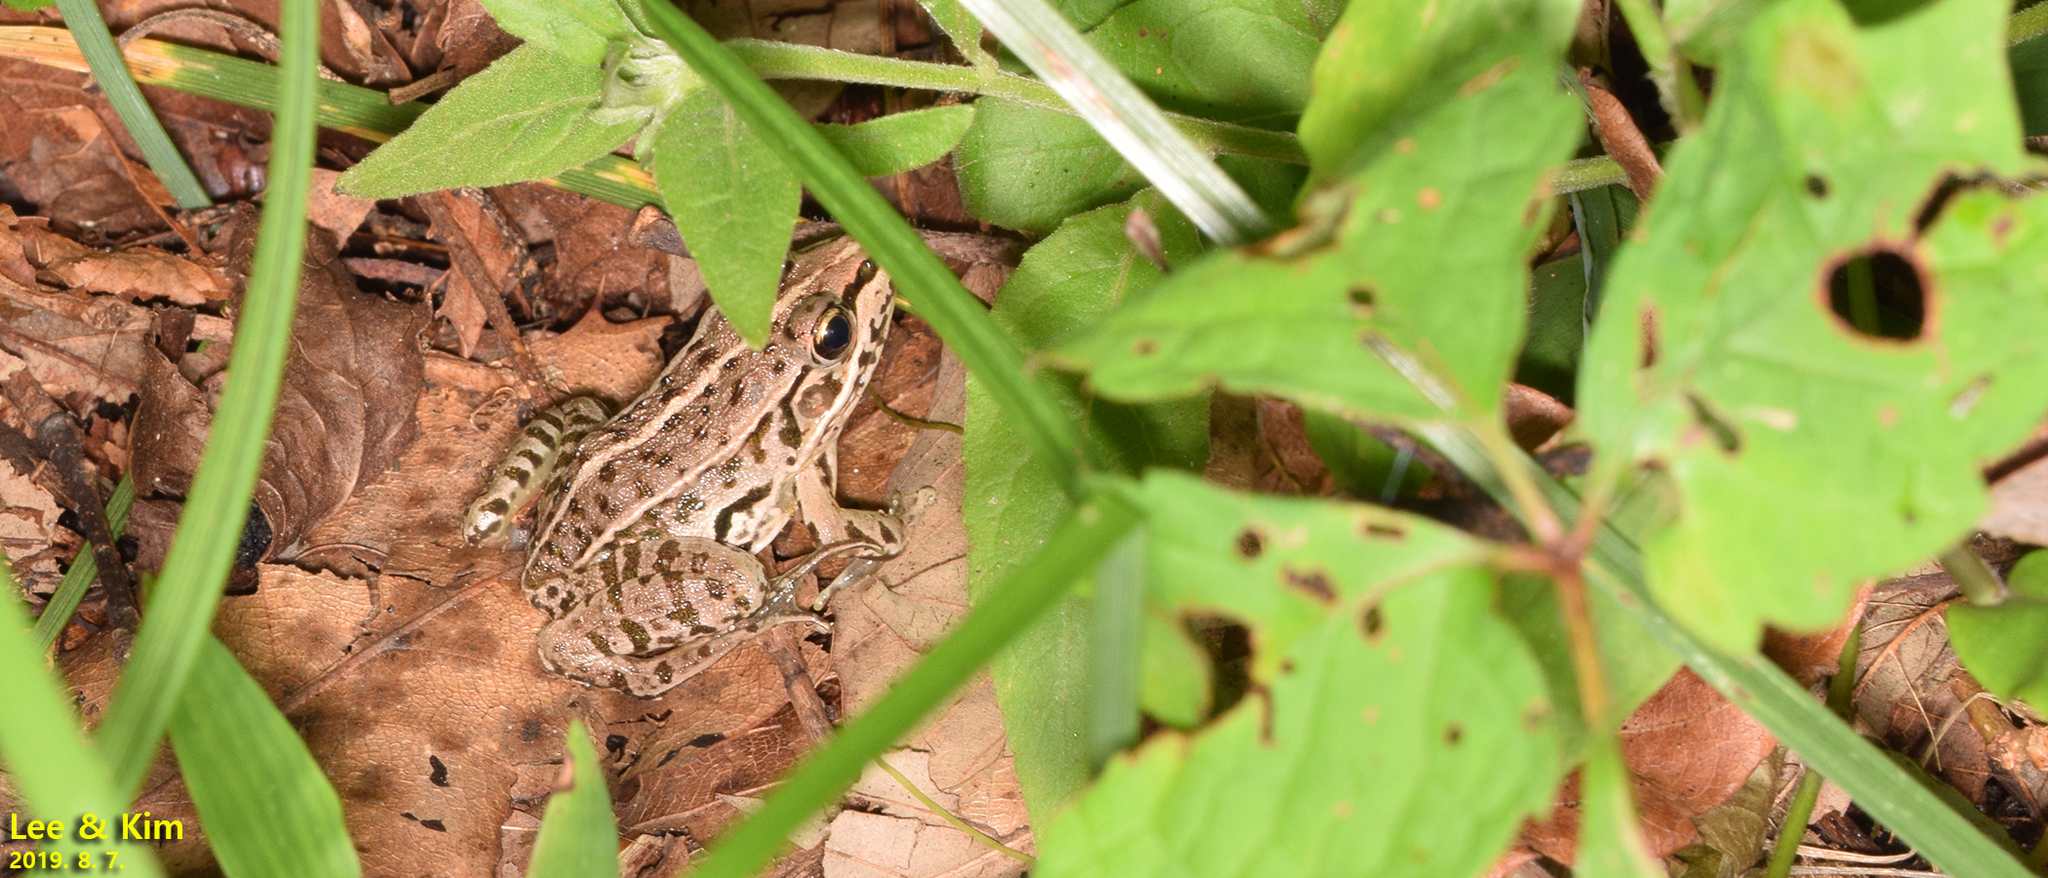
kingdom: Animalia
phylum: Chordata
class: Amphibia
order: Anura
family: Ranidae
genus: Pelophylax
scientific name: Pelophylax nigromaculatus
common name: Black-spotted pond frog
